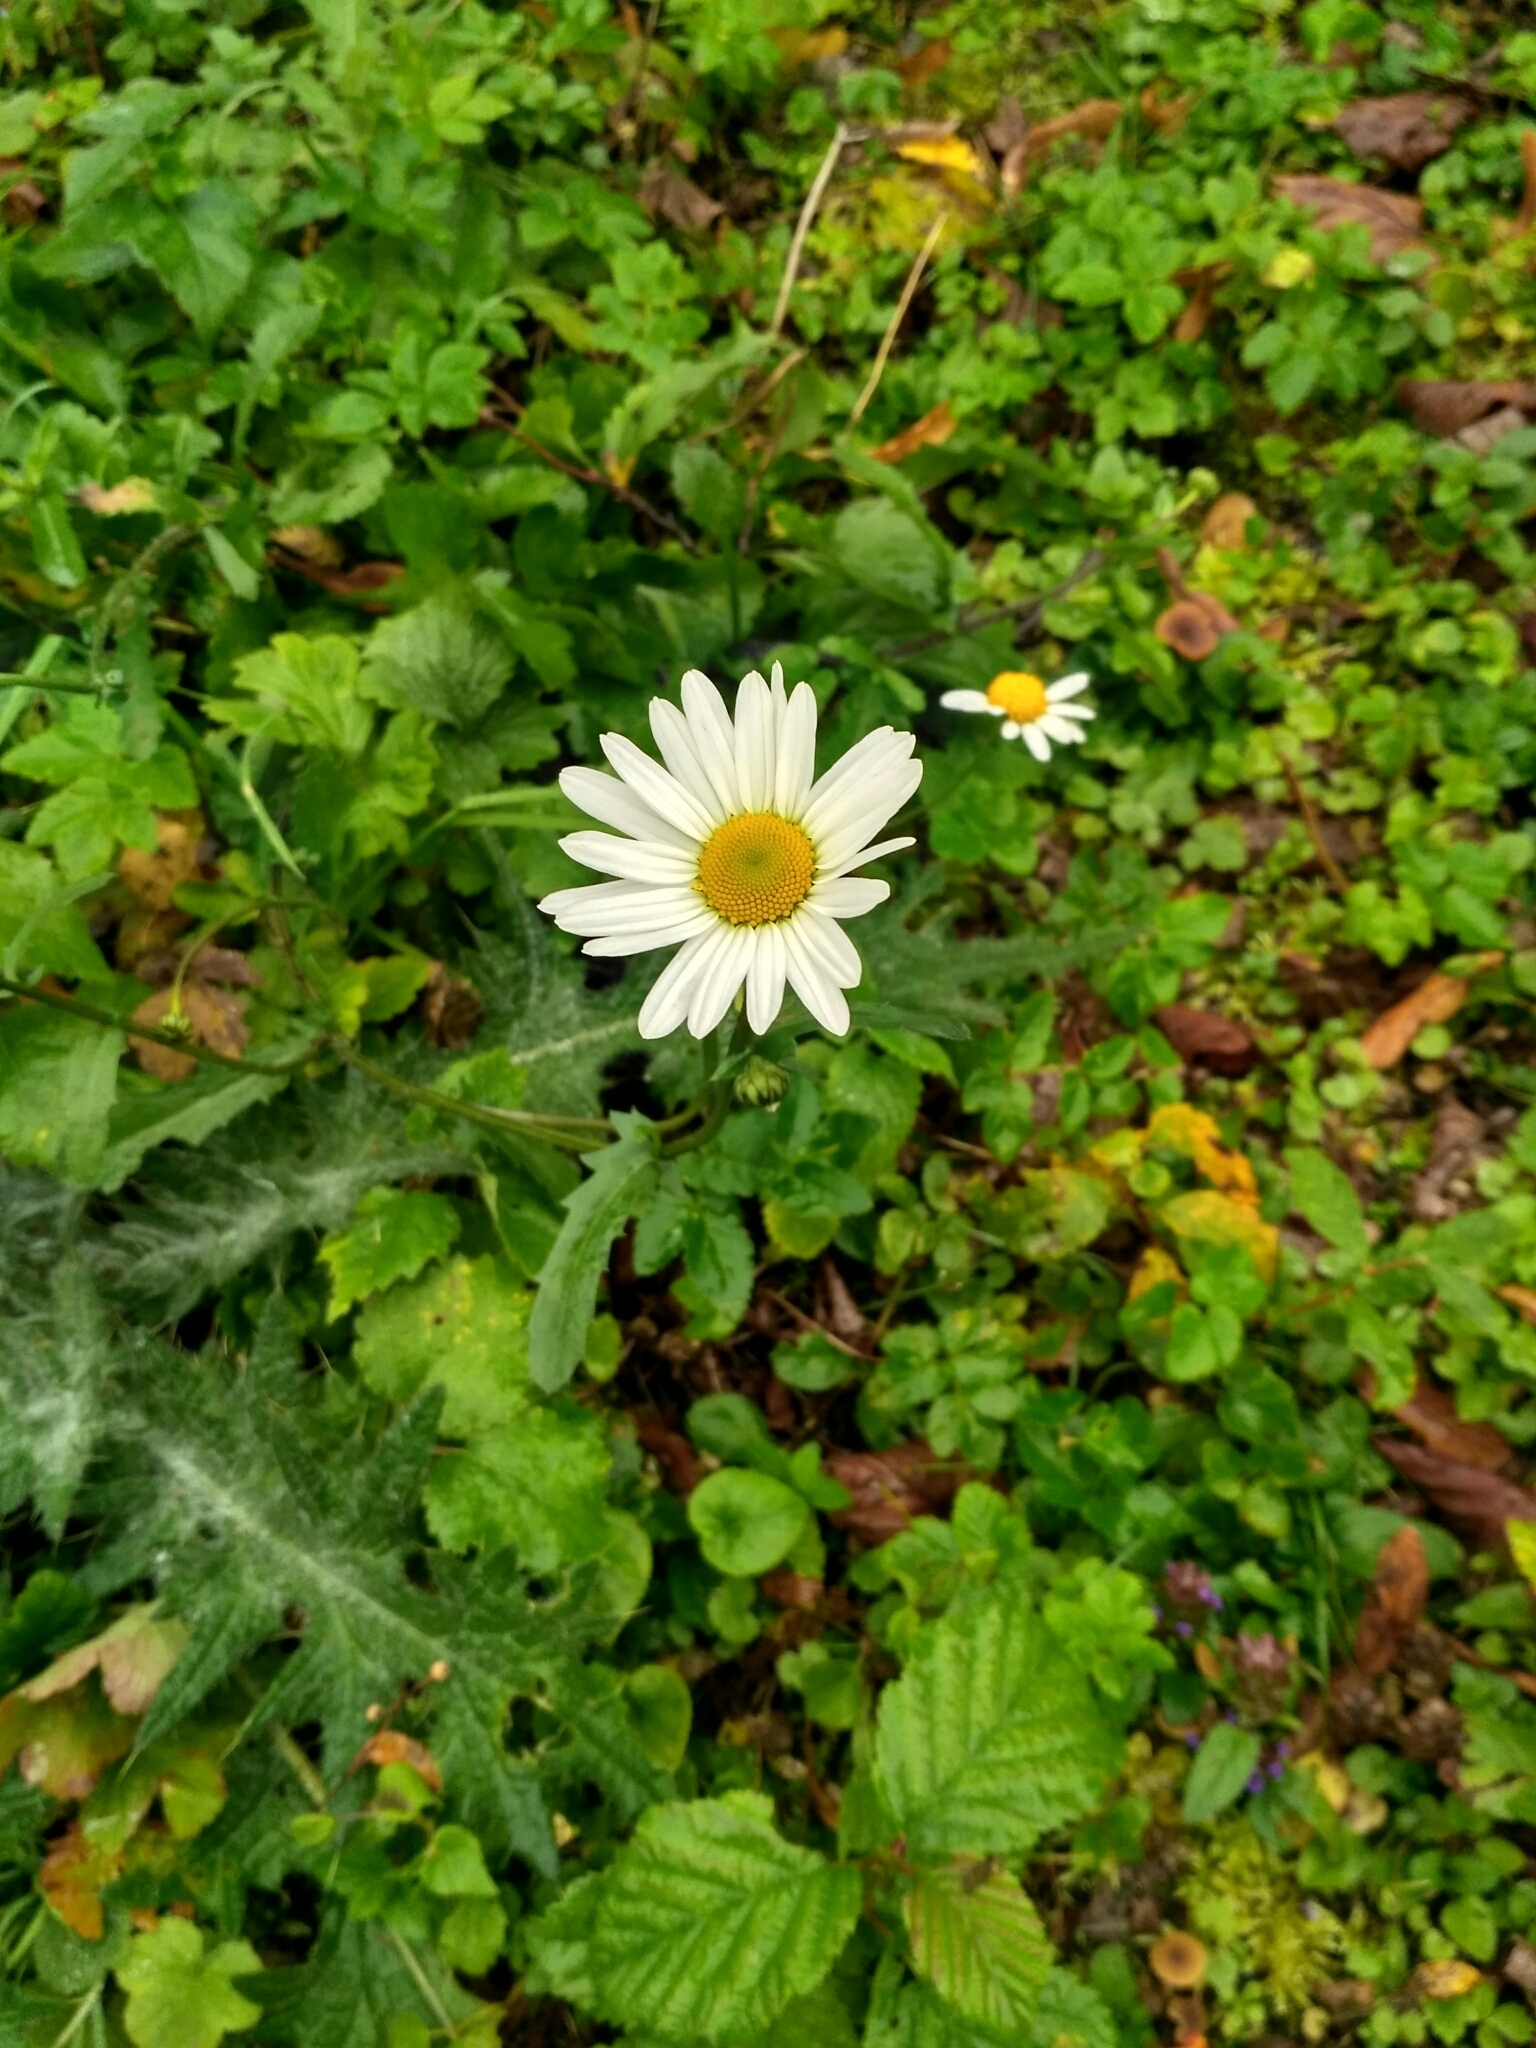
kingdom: Plantae
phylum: Tracheophyta
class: Magnoliopsida
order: Asterales
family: Asteraceae
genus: Leucanthemum
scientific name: Leucanthemum vulgare
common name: Oxeye daisy
